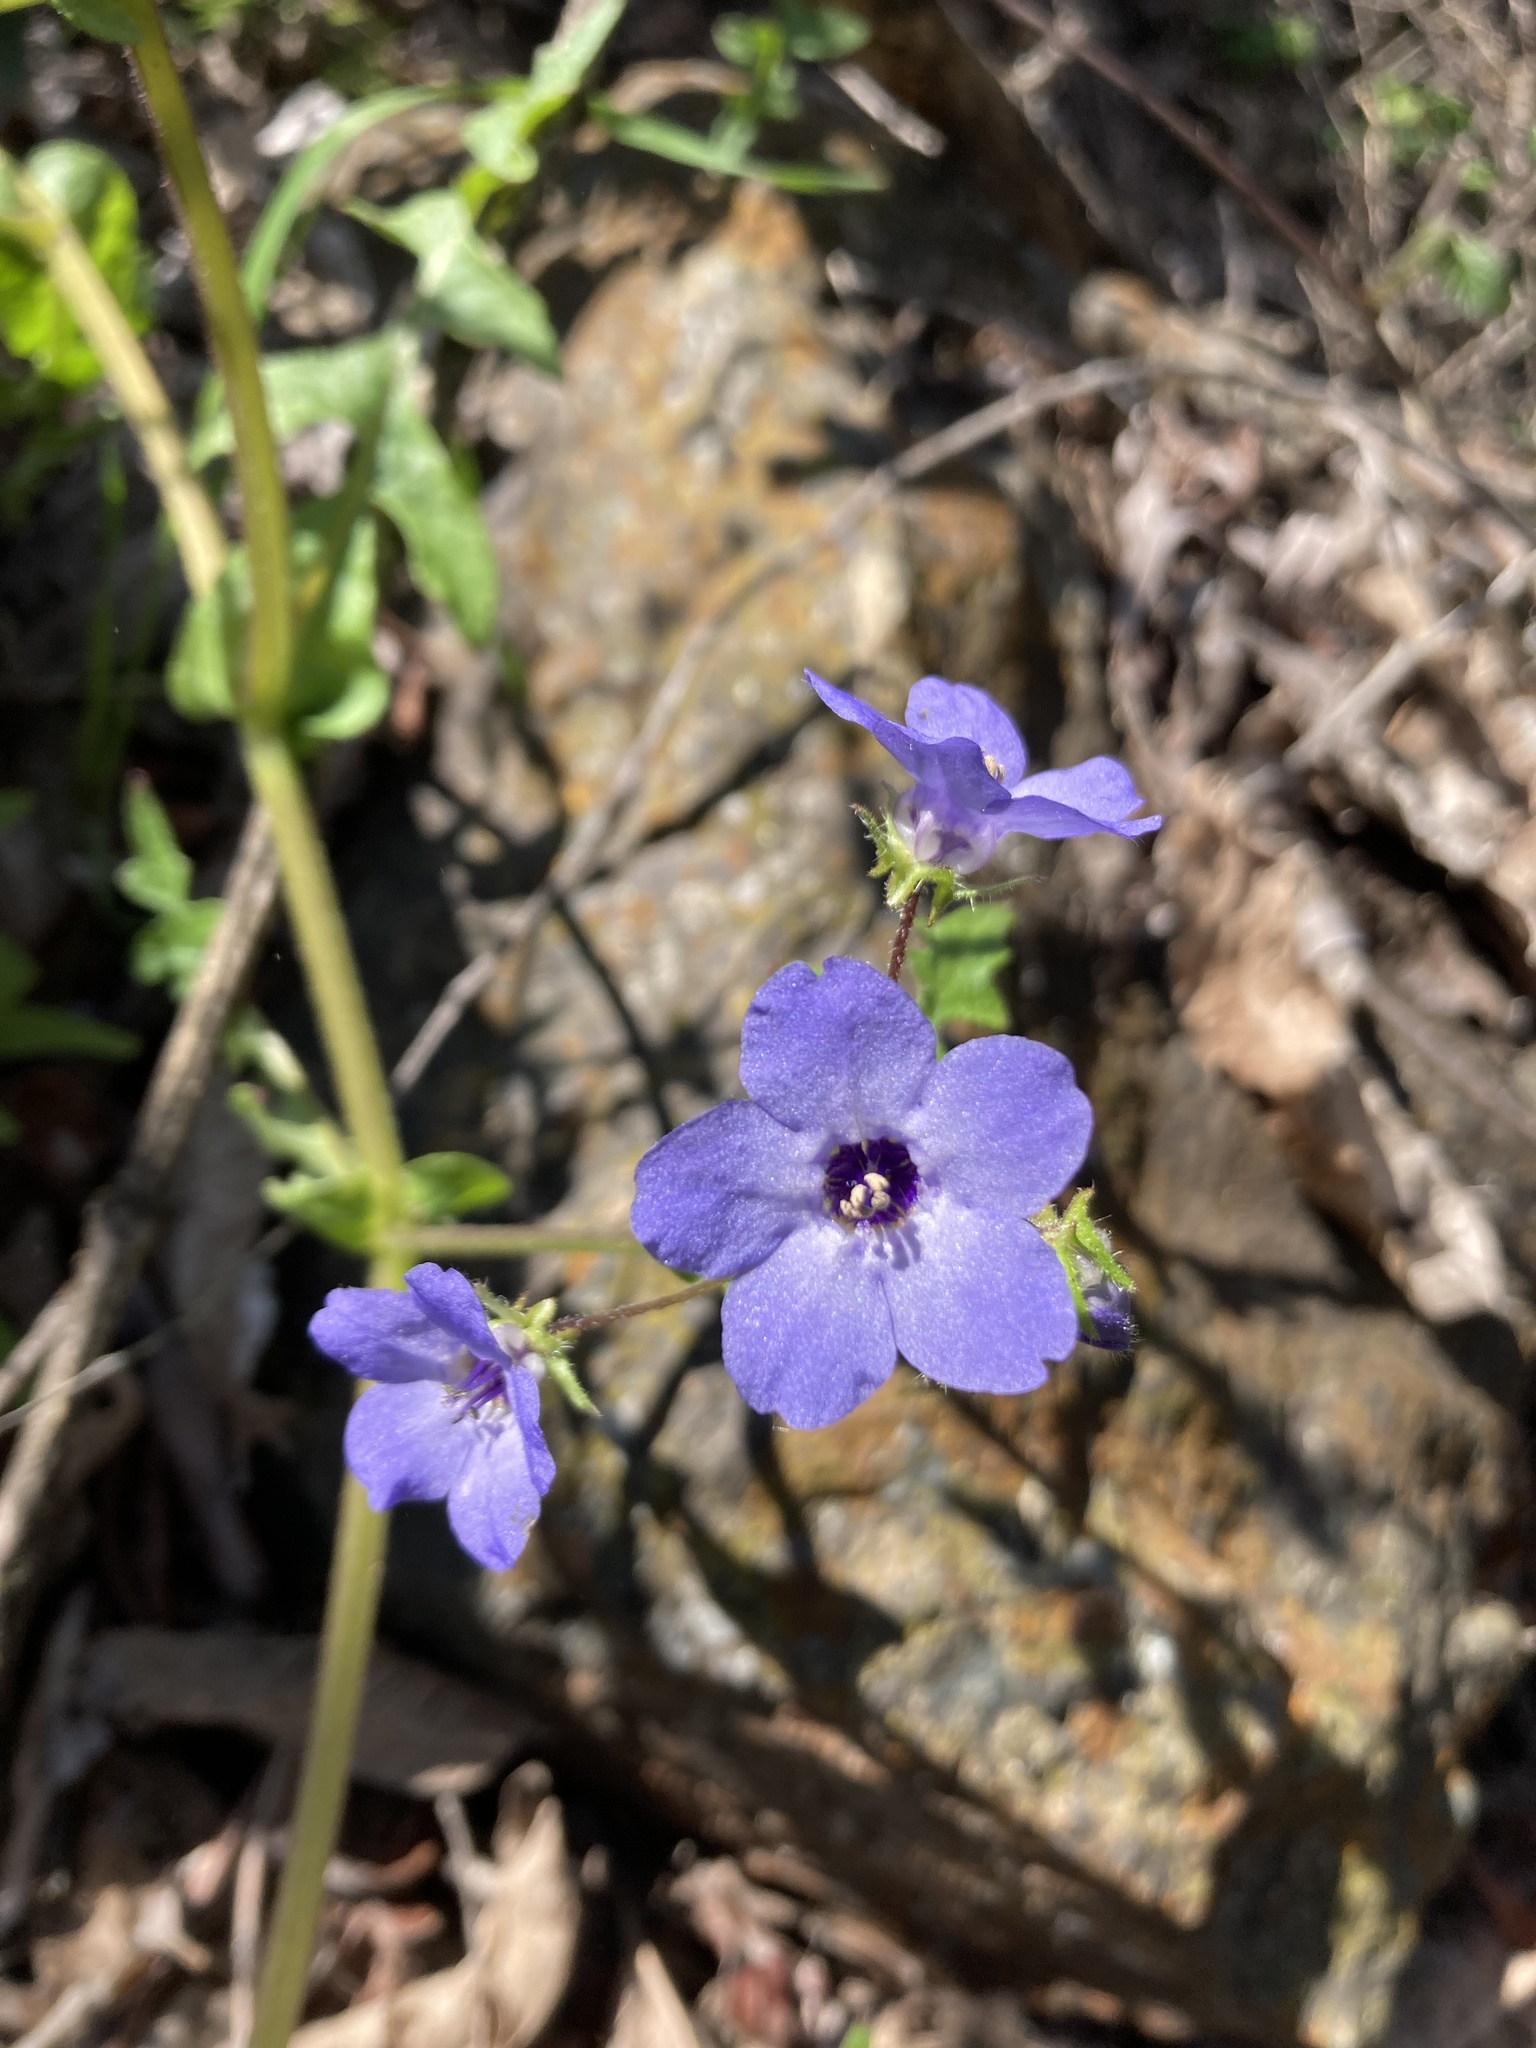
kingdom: Plantae
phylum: Tracheophyta
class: Magnoliopsida
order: Boraginales
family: Hydrophyllaceae
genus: Pholistoma
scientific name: Pholistoma auritum
